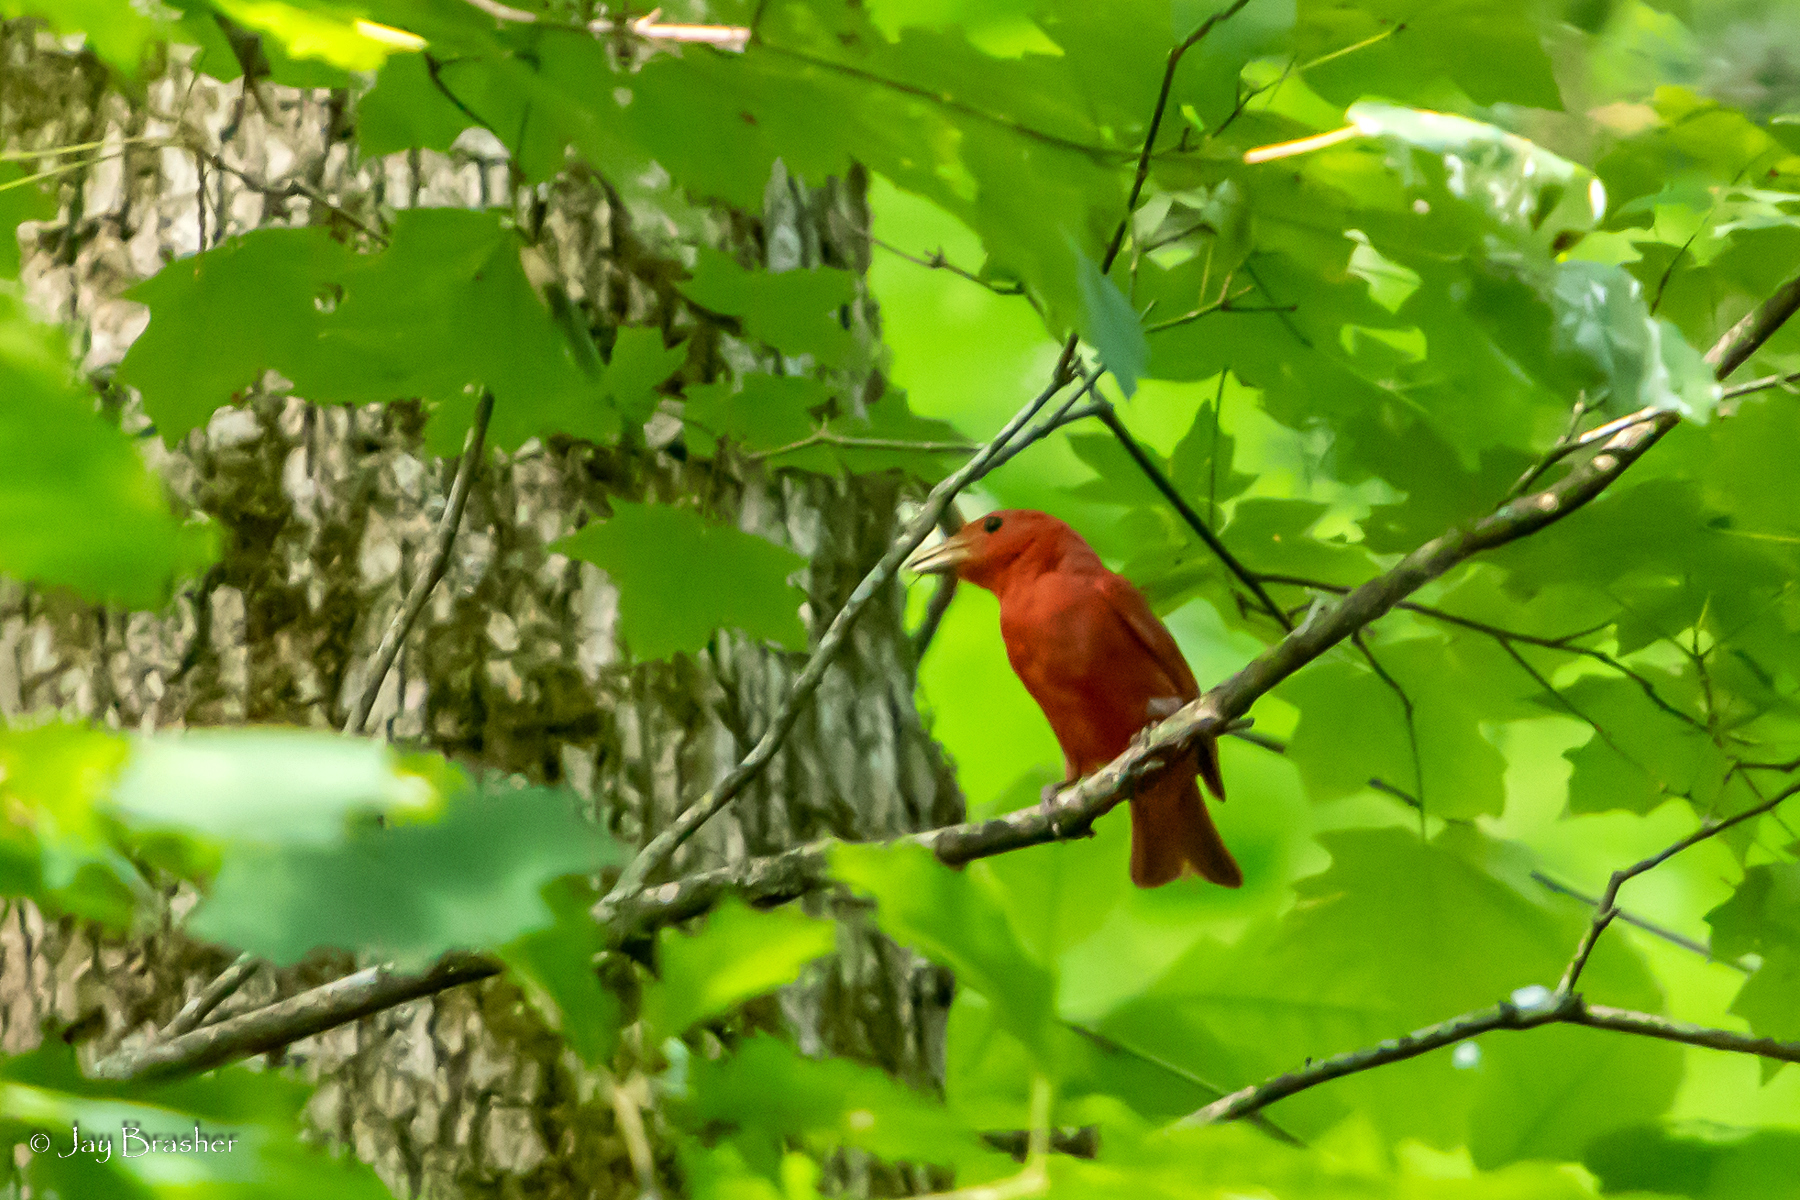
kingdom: Animalia
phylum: Chordata
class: Aves
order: Passeriformes
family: Cardinalidae
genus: Piranga
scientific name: Piranga rubra
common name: Summer tanager
